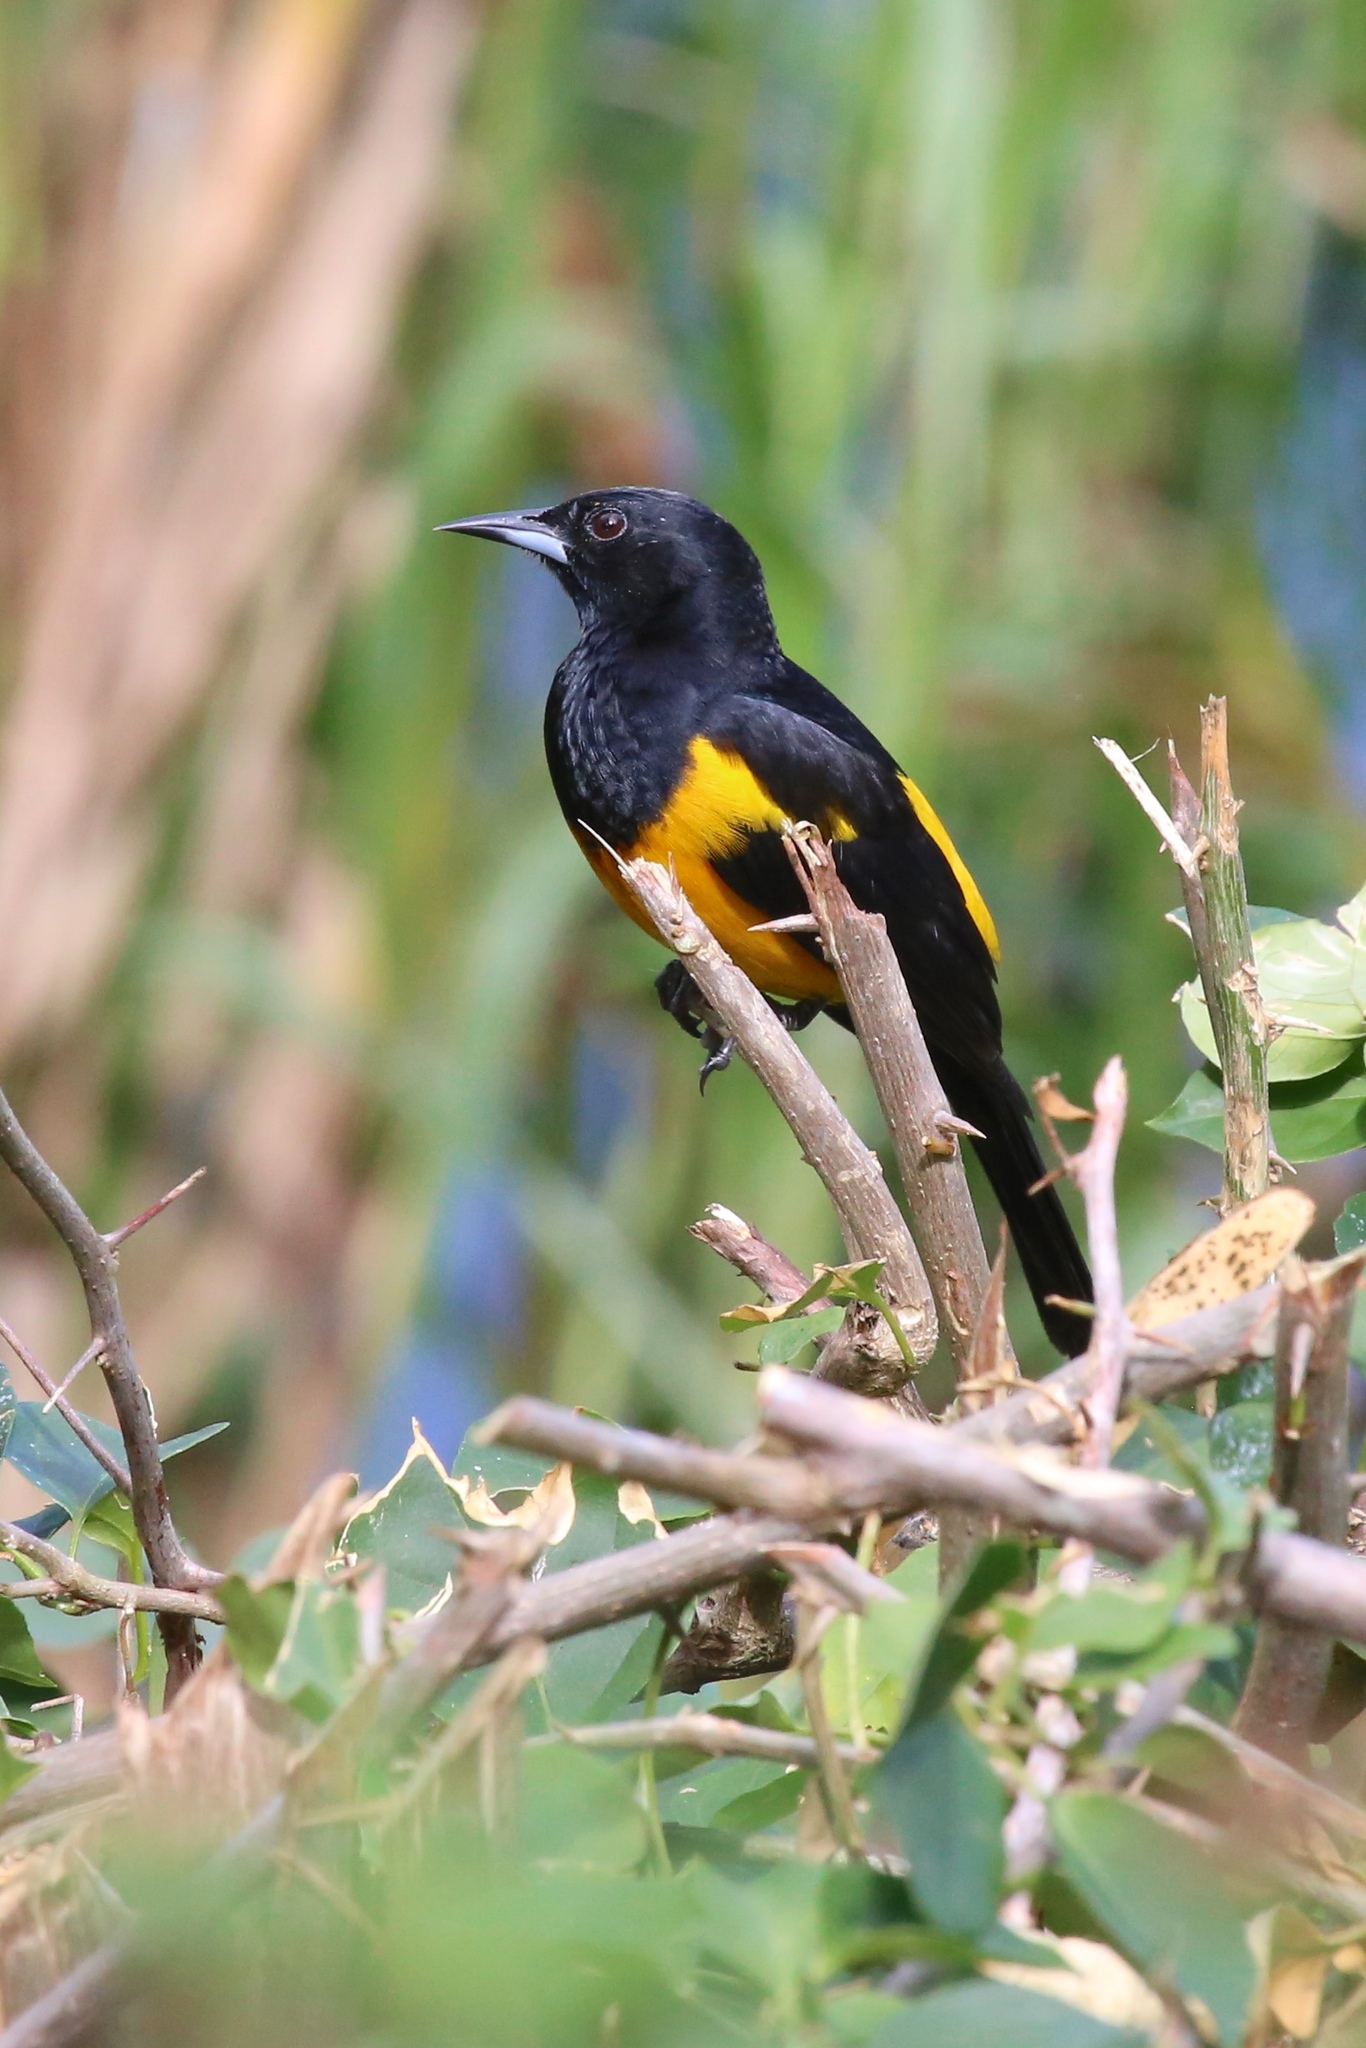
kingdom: Animalia
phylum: Chordata
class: Aves
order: Passeriformes
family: Icteridae
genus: Icterus
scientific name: Icterus wagleri
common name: Black-vented oriole
